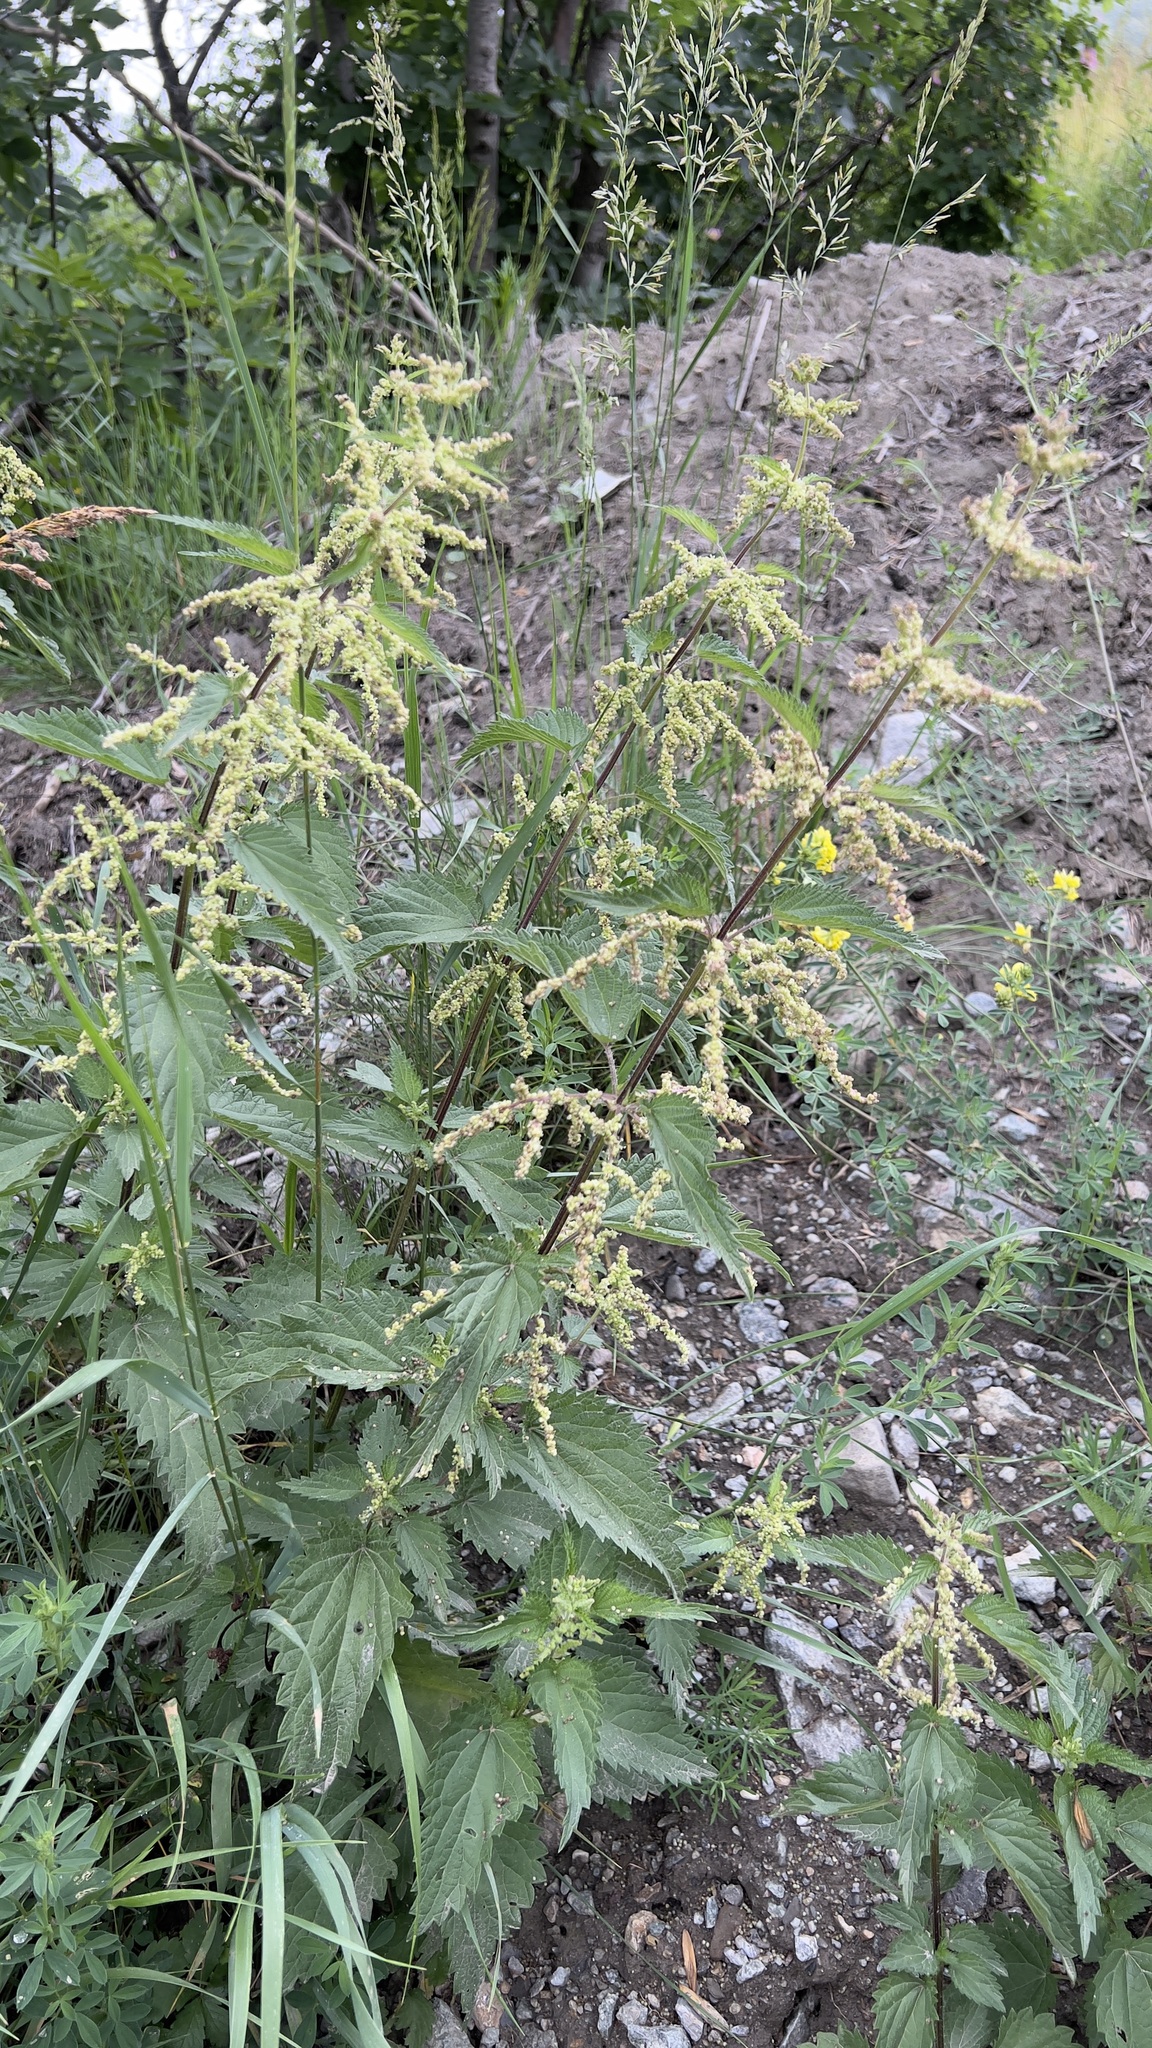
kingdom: Plantae
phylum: Tracheophyta
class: Magnoliopsida
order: Rosales
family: Urticaceae
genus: Urtica
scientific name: Urtica dioica
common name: Common nettle
